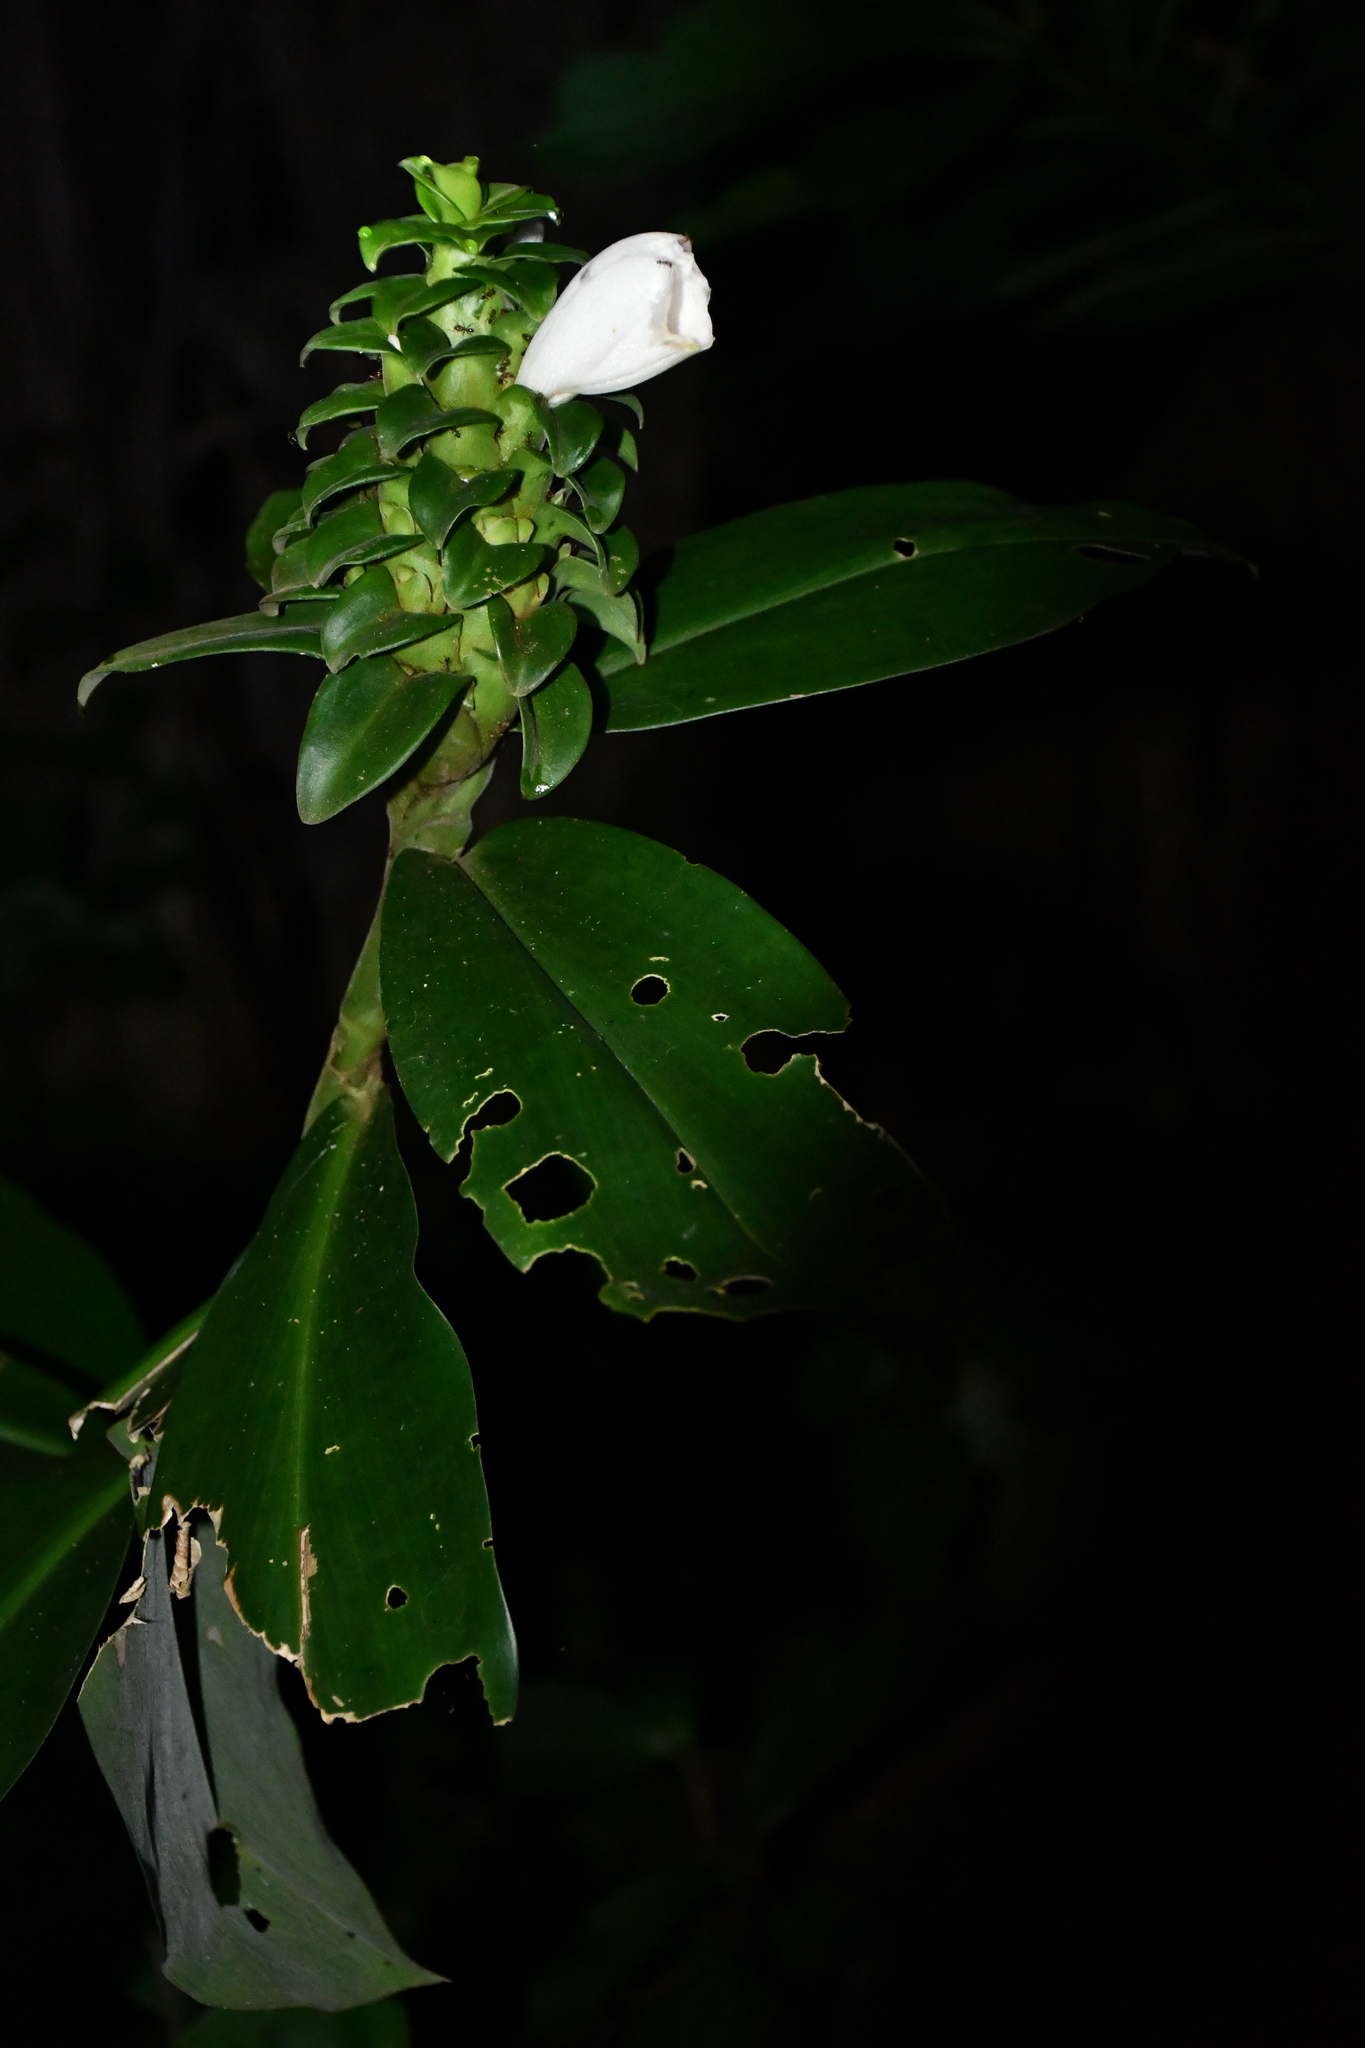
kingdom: Plantae
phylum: Tracheophyta
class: Liliopsida
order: Zingiberales
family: Costaceae
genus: Costus
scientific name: Costus arabicus
